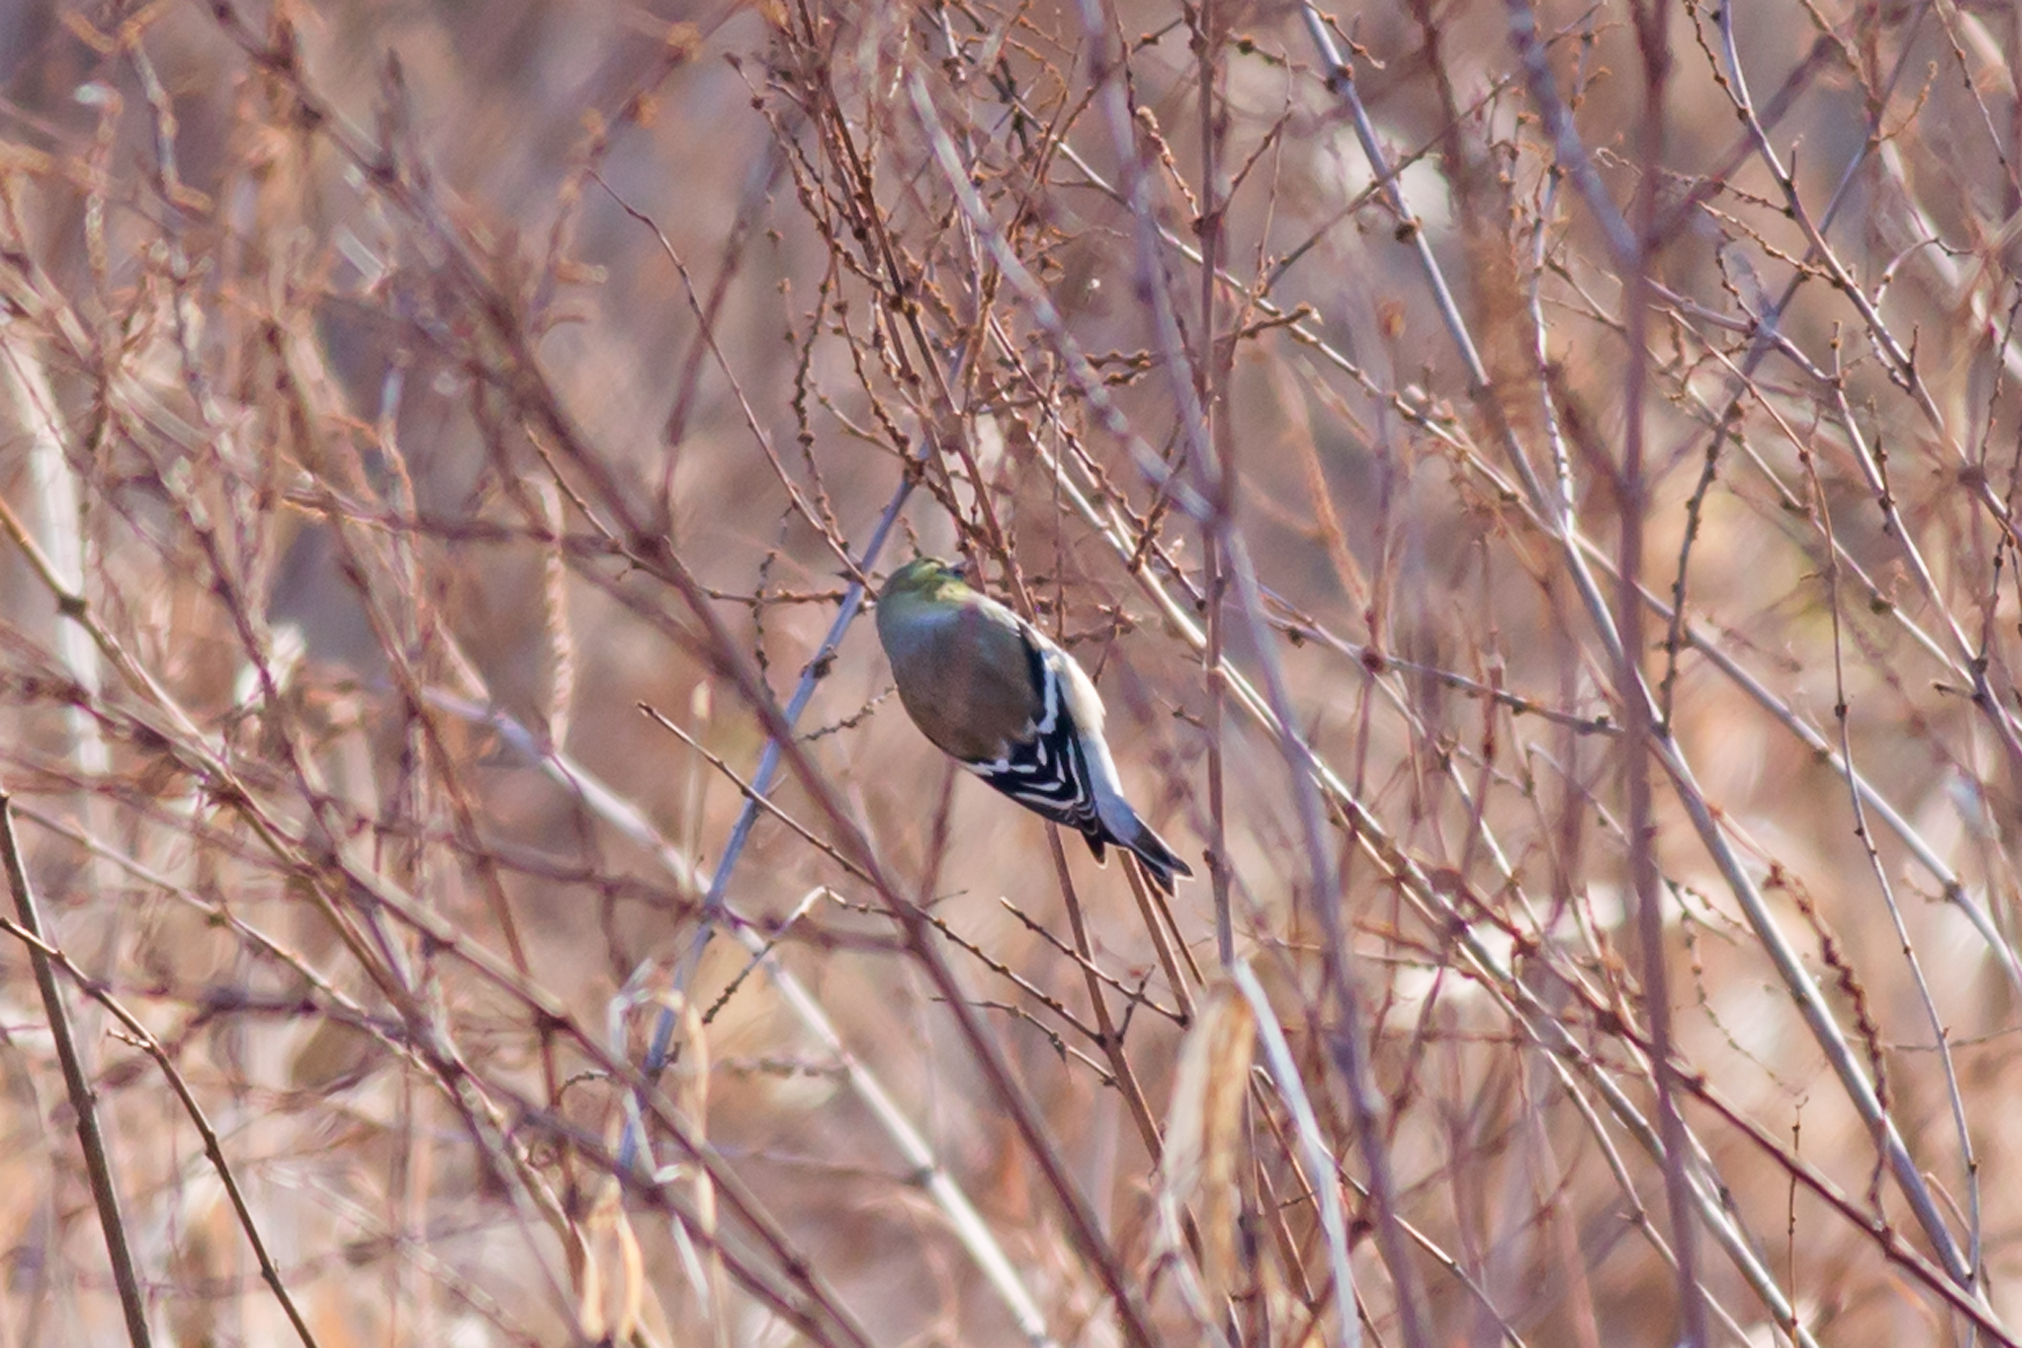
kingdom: Animalia
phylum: Chordata
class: Aves
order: Passeriformes
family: Fringillidae
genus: Spinus
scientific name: Spinus tristis
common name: American goldfinch
